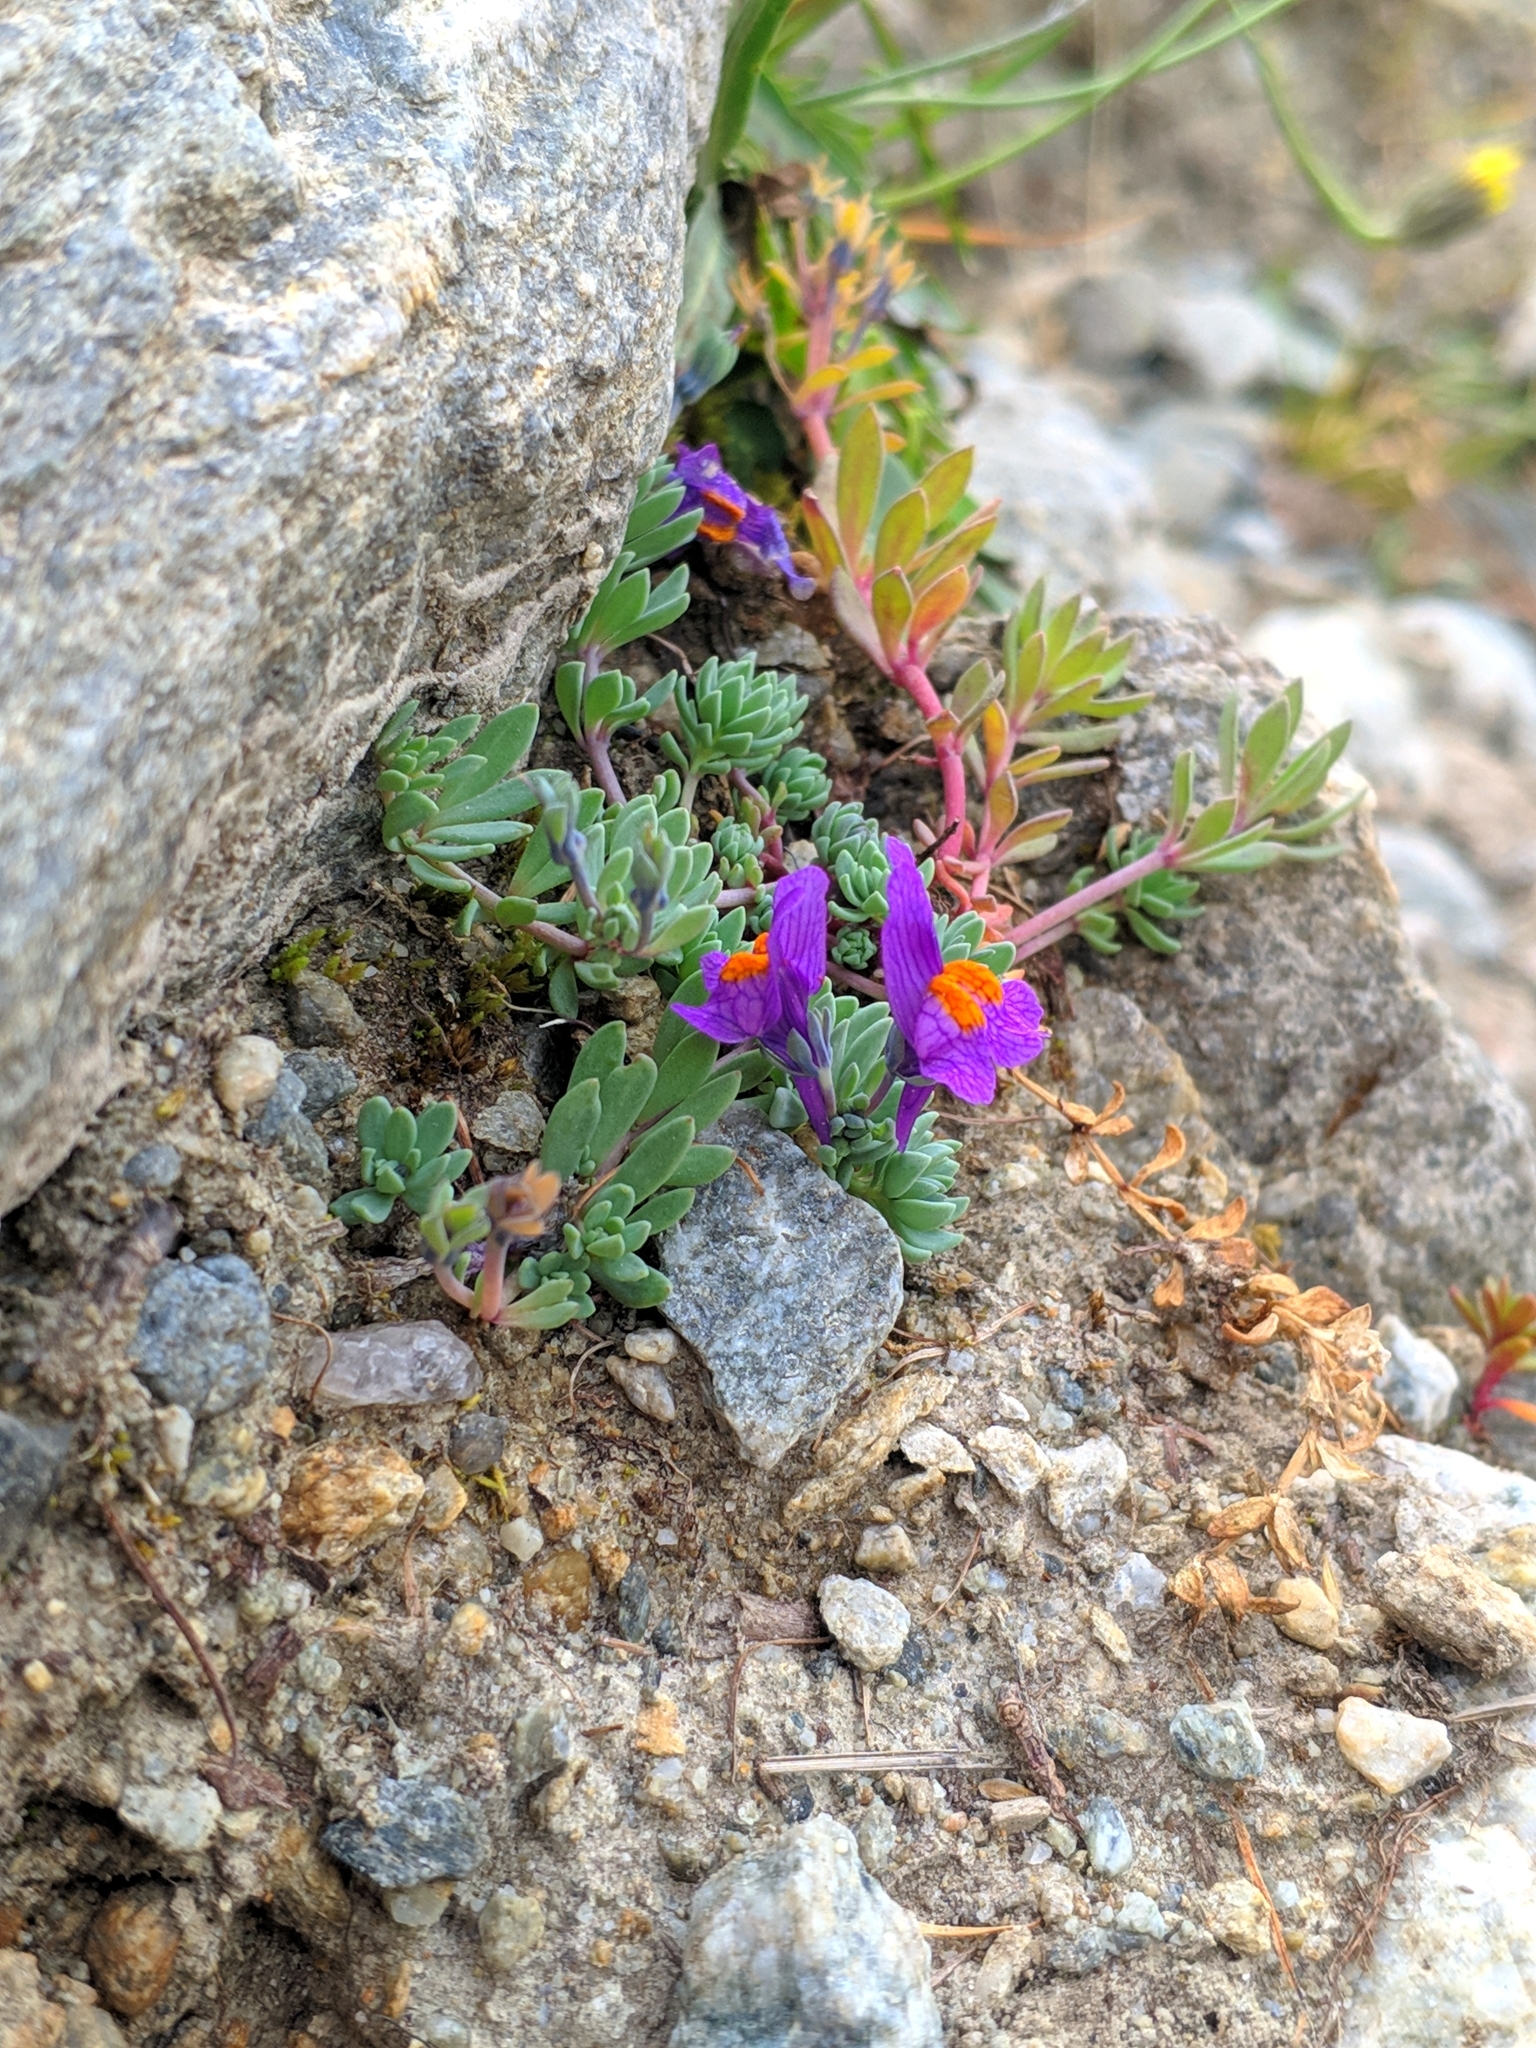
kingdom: Plantae
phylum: Tracheophyta
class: Magnoliopsida
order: Lamiales
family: Plantaginaceae
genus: Linaria
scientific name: Linaria alpina
